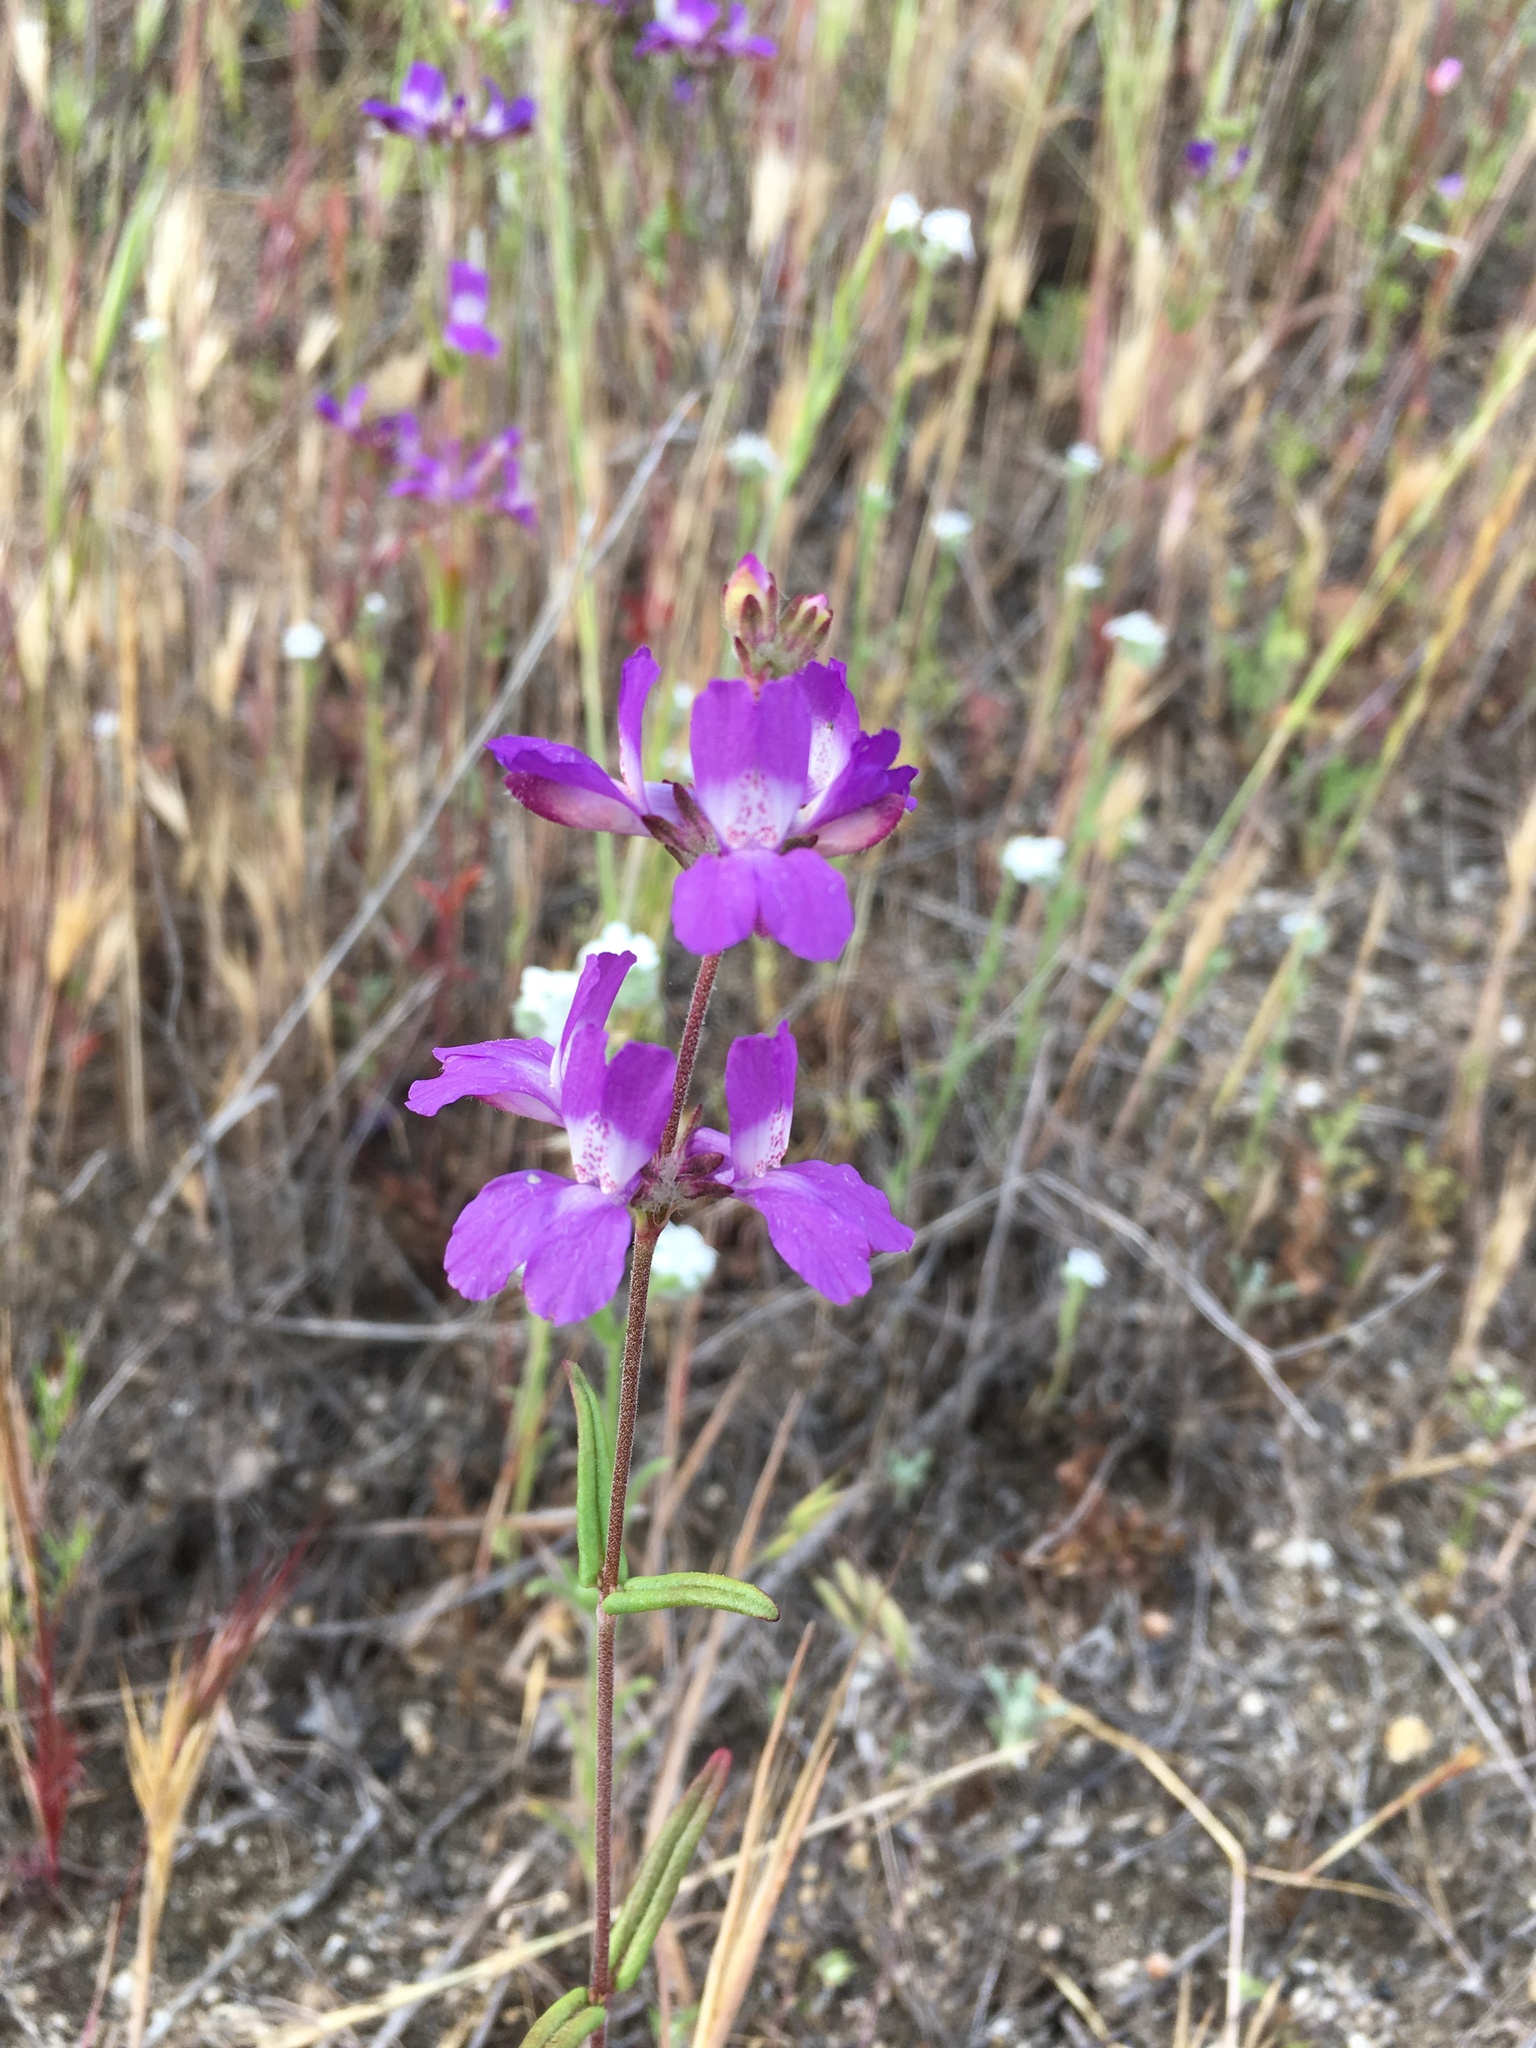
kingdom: Plantae
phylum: Tracheophyta
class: Magnoliopsida
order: Lamiales
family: Plantaginaceae
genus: Collinsia
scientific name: Collinsia heterophylla
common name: Chinese-houses
